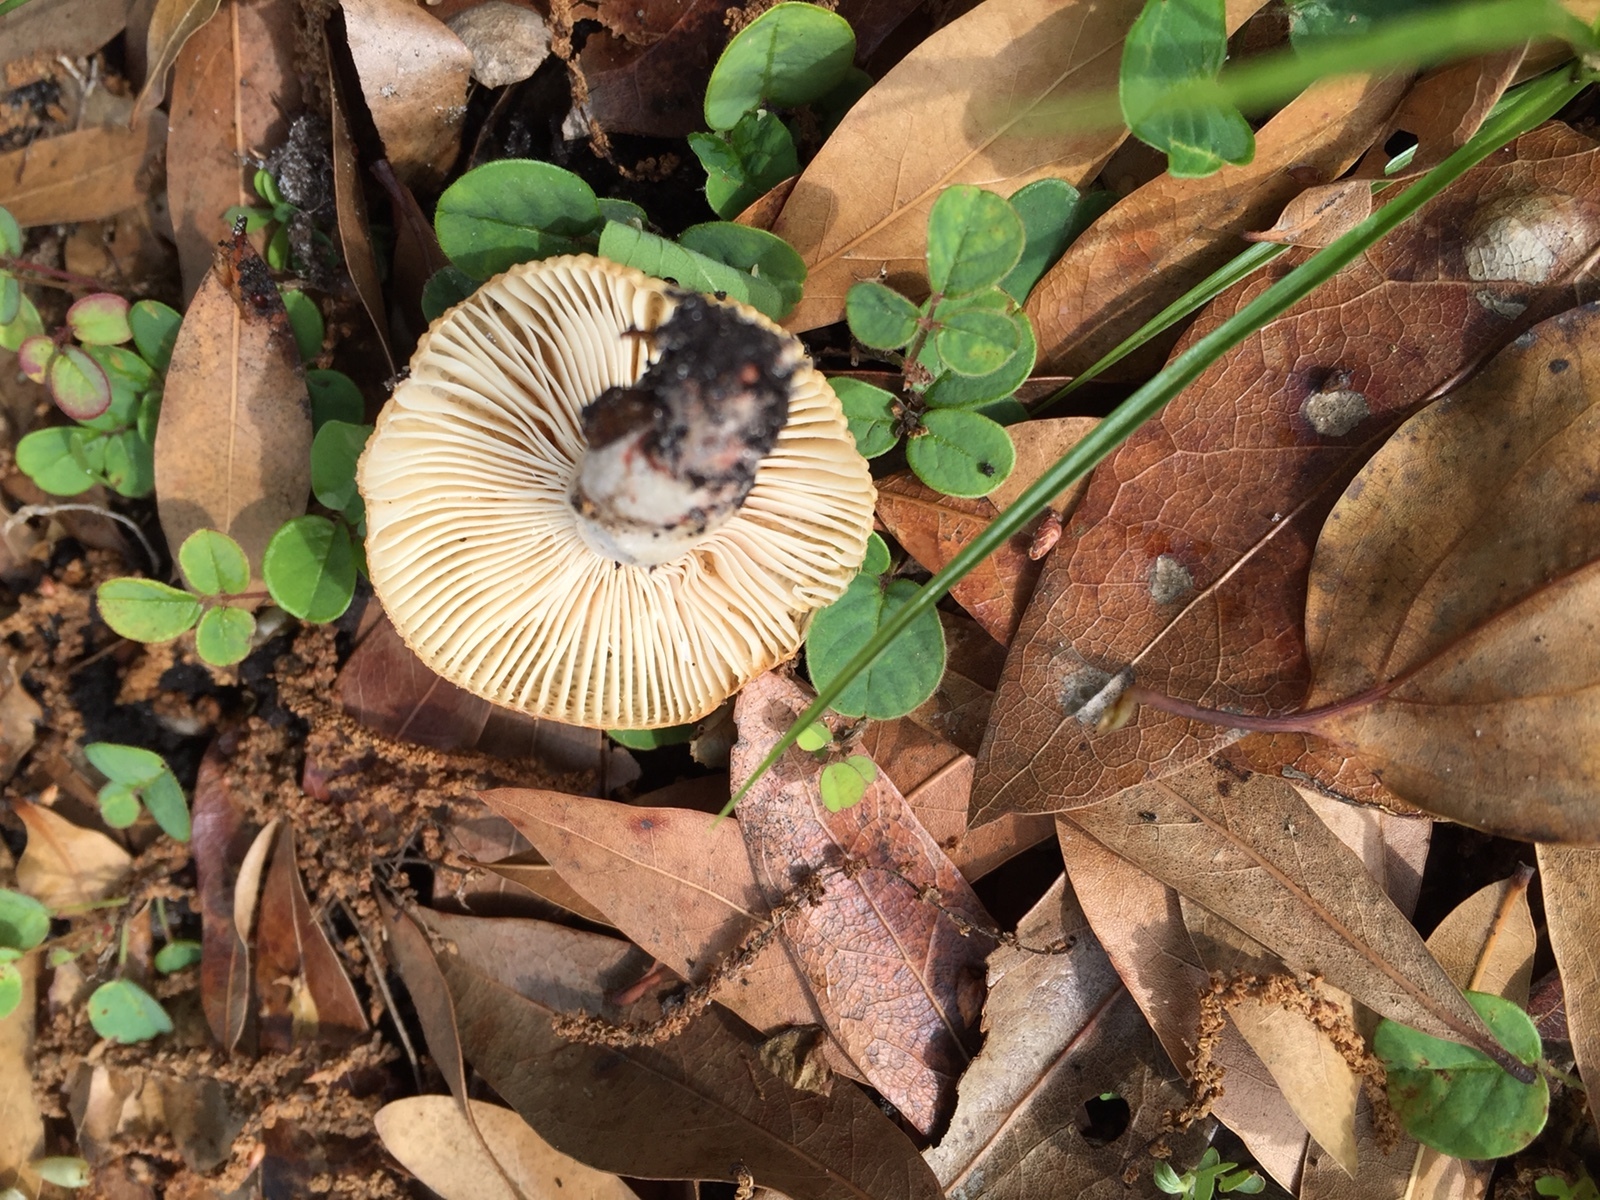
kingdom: Fungi
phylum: Basidiomycota
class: Agaricomycetes
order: Russulales
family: Russulaceae
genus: Russula
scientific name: Russula pectinatoides
